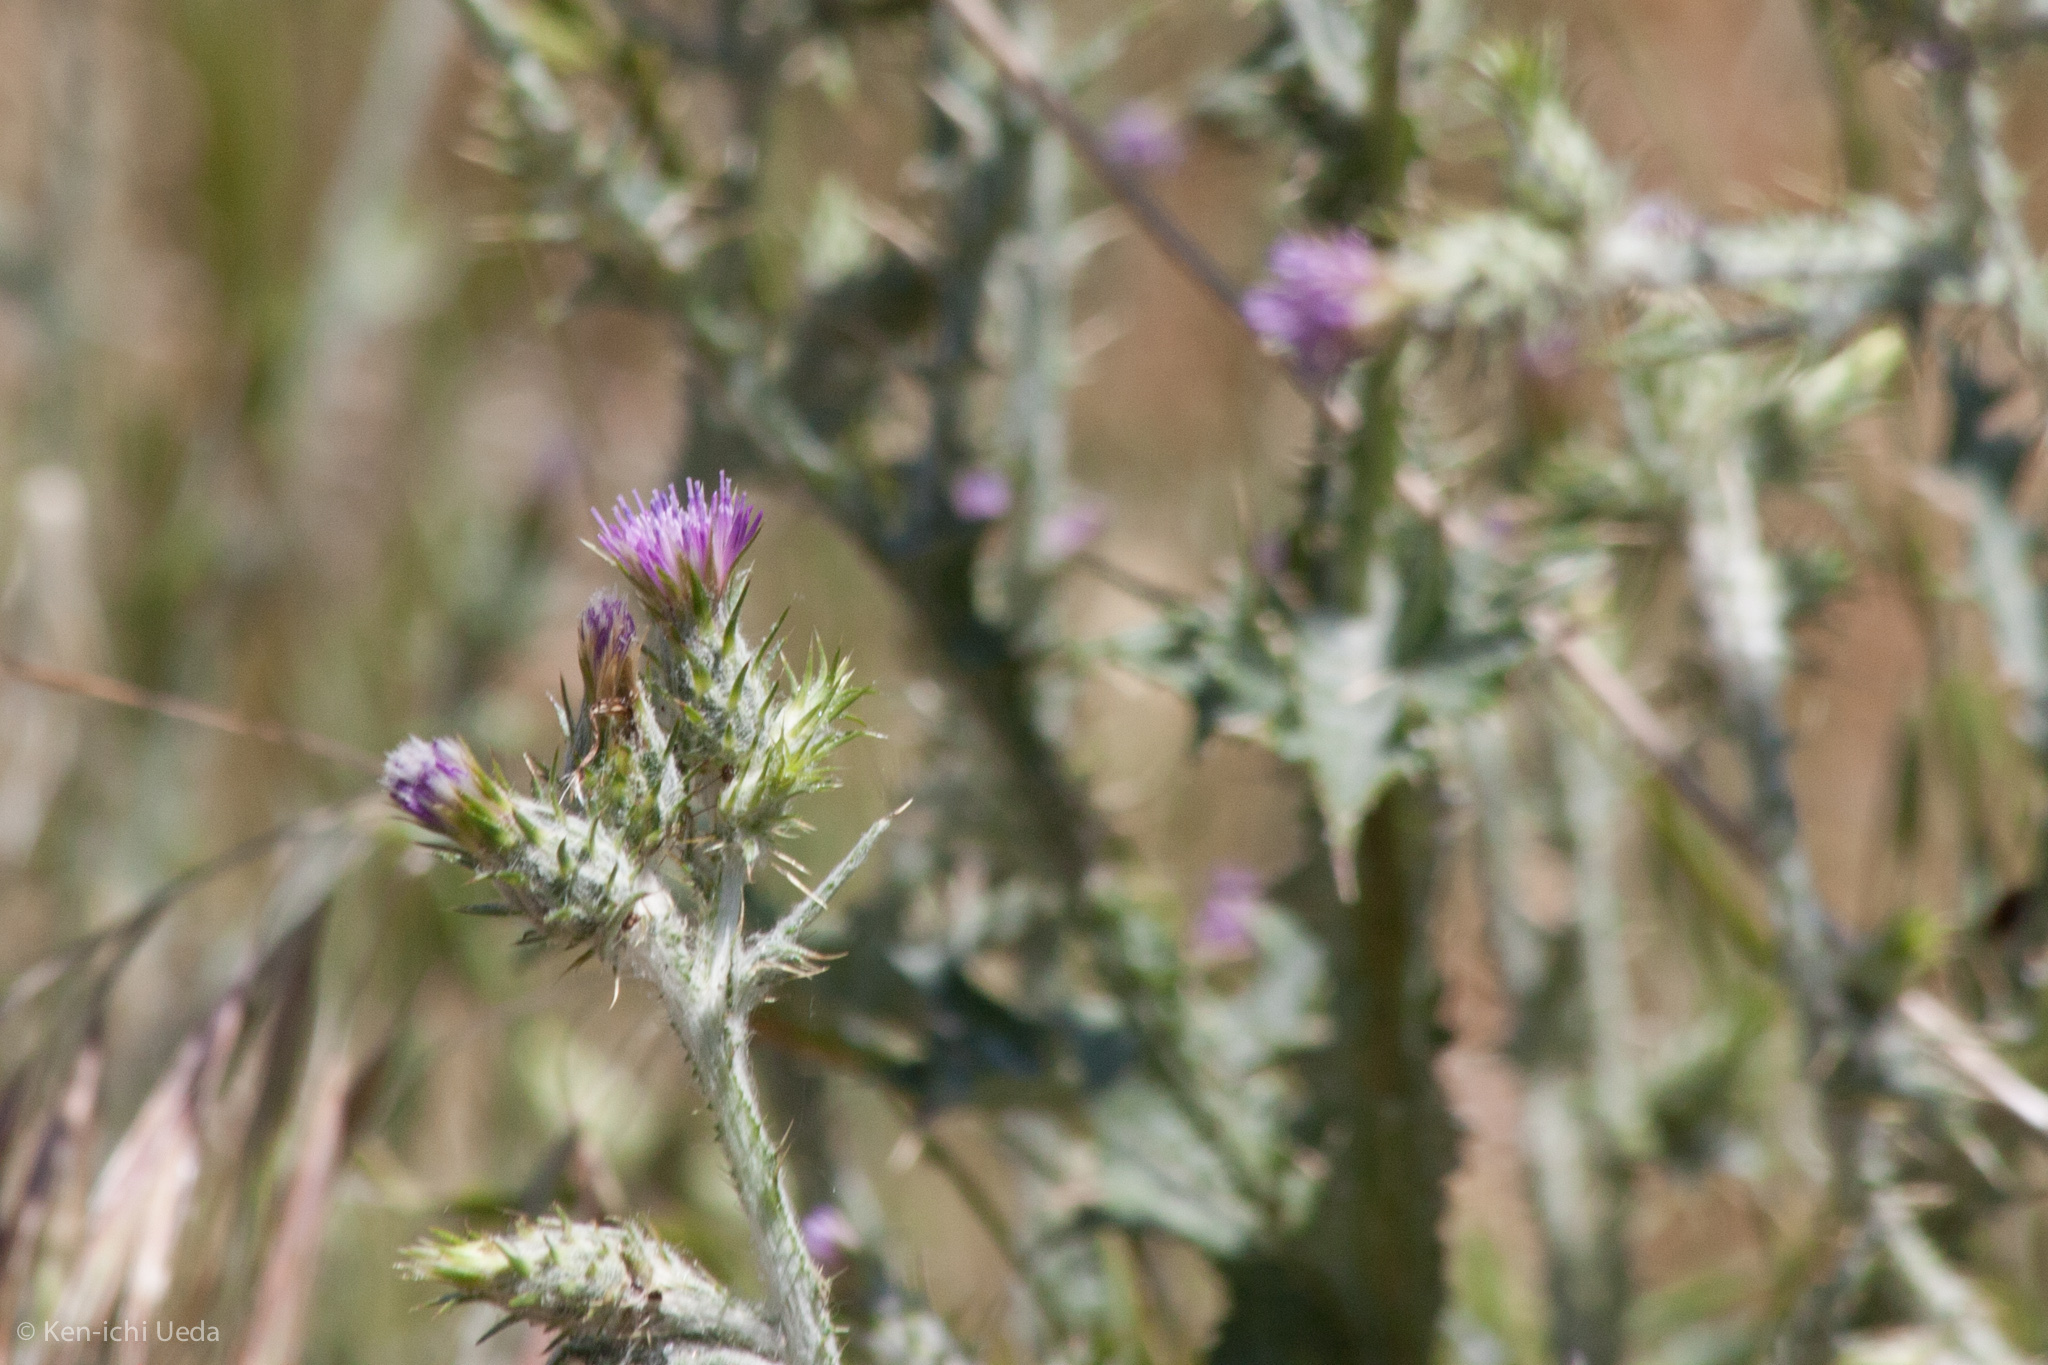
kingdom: Plantae
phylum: Tracheophyta
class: Magnoliopsida
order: Asterales
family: Asteraceae
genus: Carduus
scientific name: Carduus pycnocephalus
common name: Plymouth thistle
